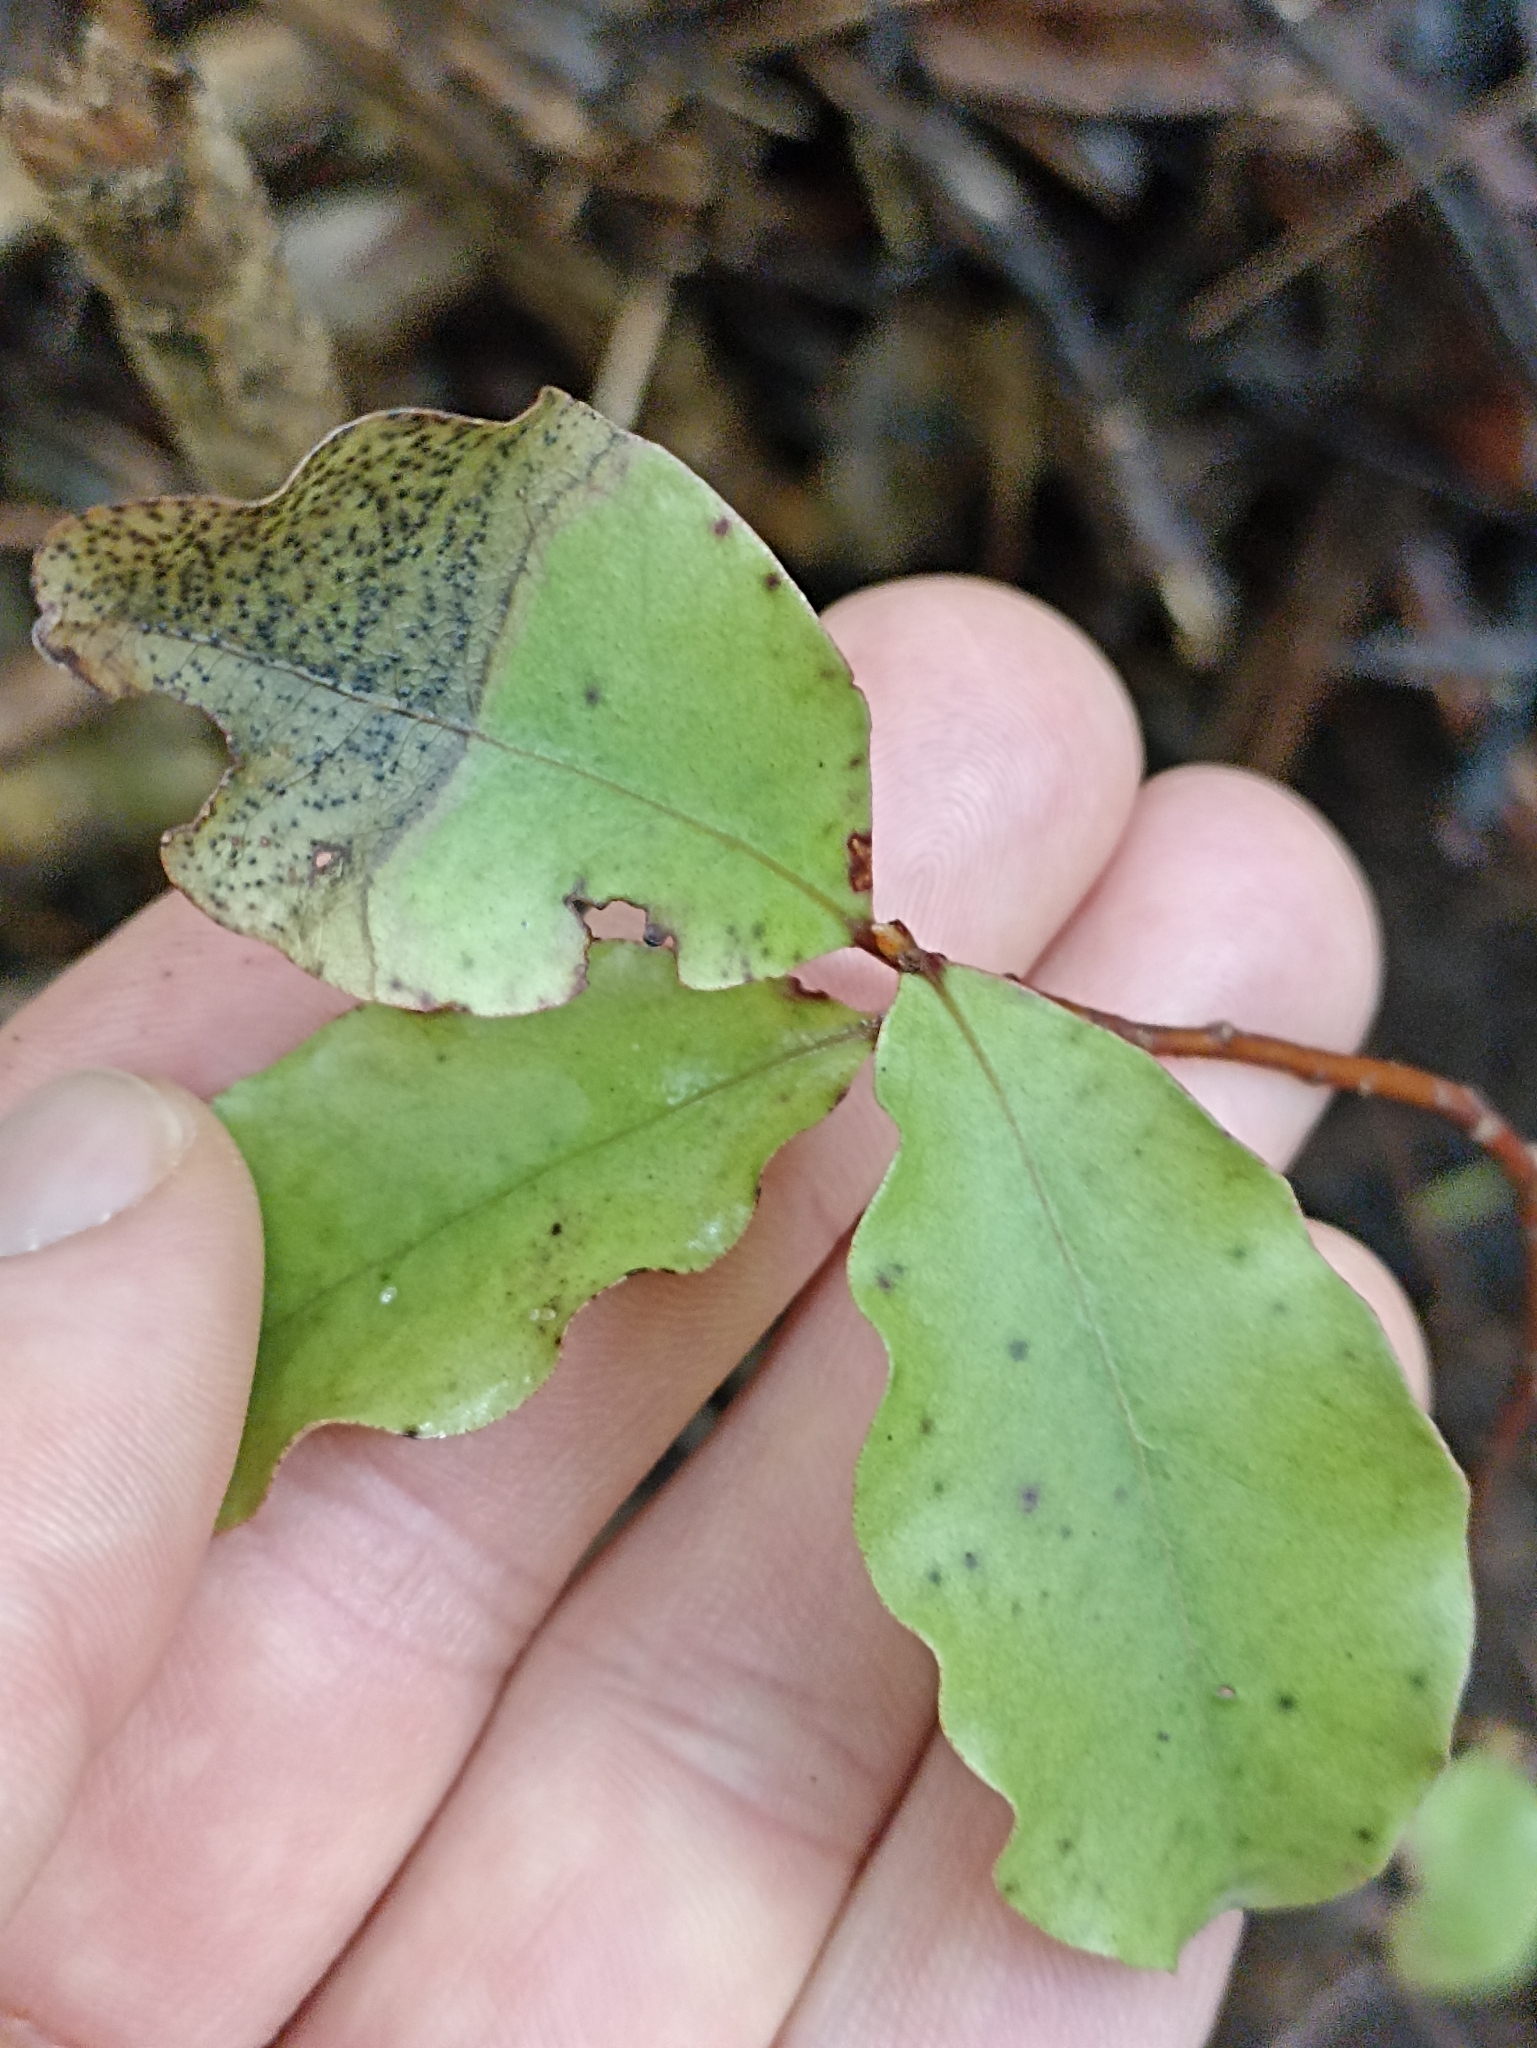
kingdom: Plantae
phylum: Tracheophyta
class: Magnoliopsida
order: Ericales
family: Primulaceae
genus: Myrsine
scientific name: Myrsine australis
